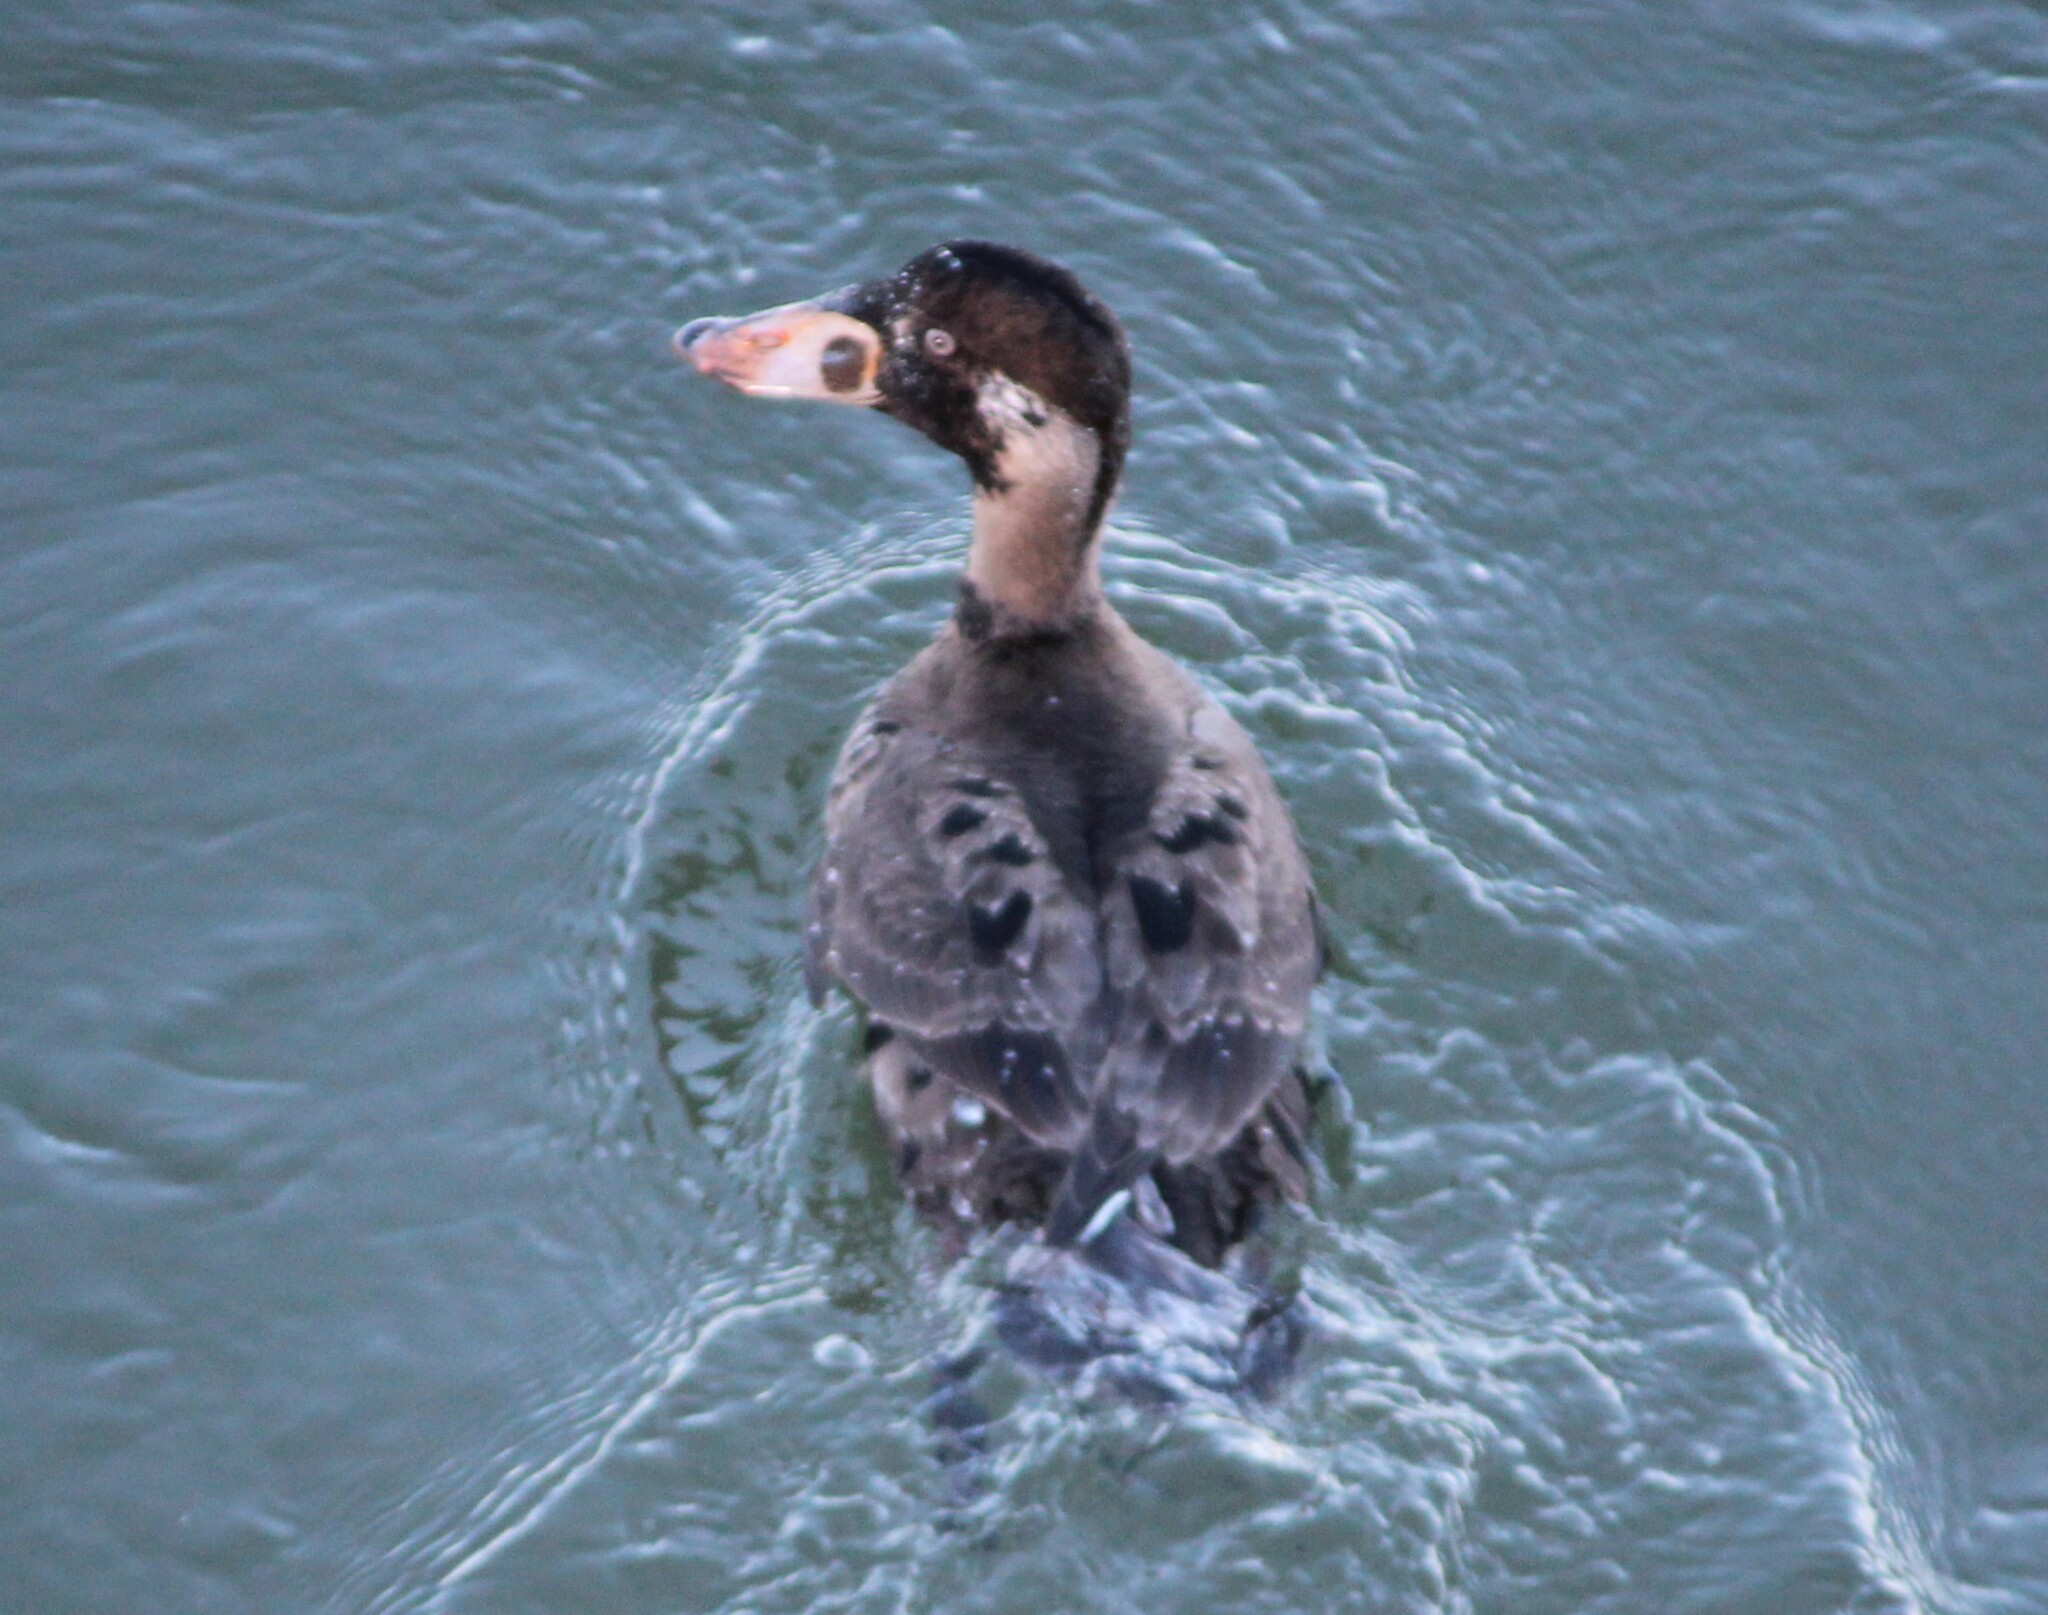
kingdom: Animalia
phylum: Chordata
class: Aves
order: Anseriformes
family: Anatidae
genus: Melanitta
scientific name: Melanitta perspicillata
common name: Surf scoter
